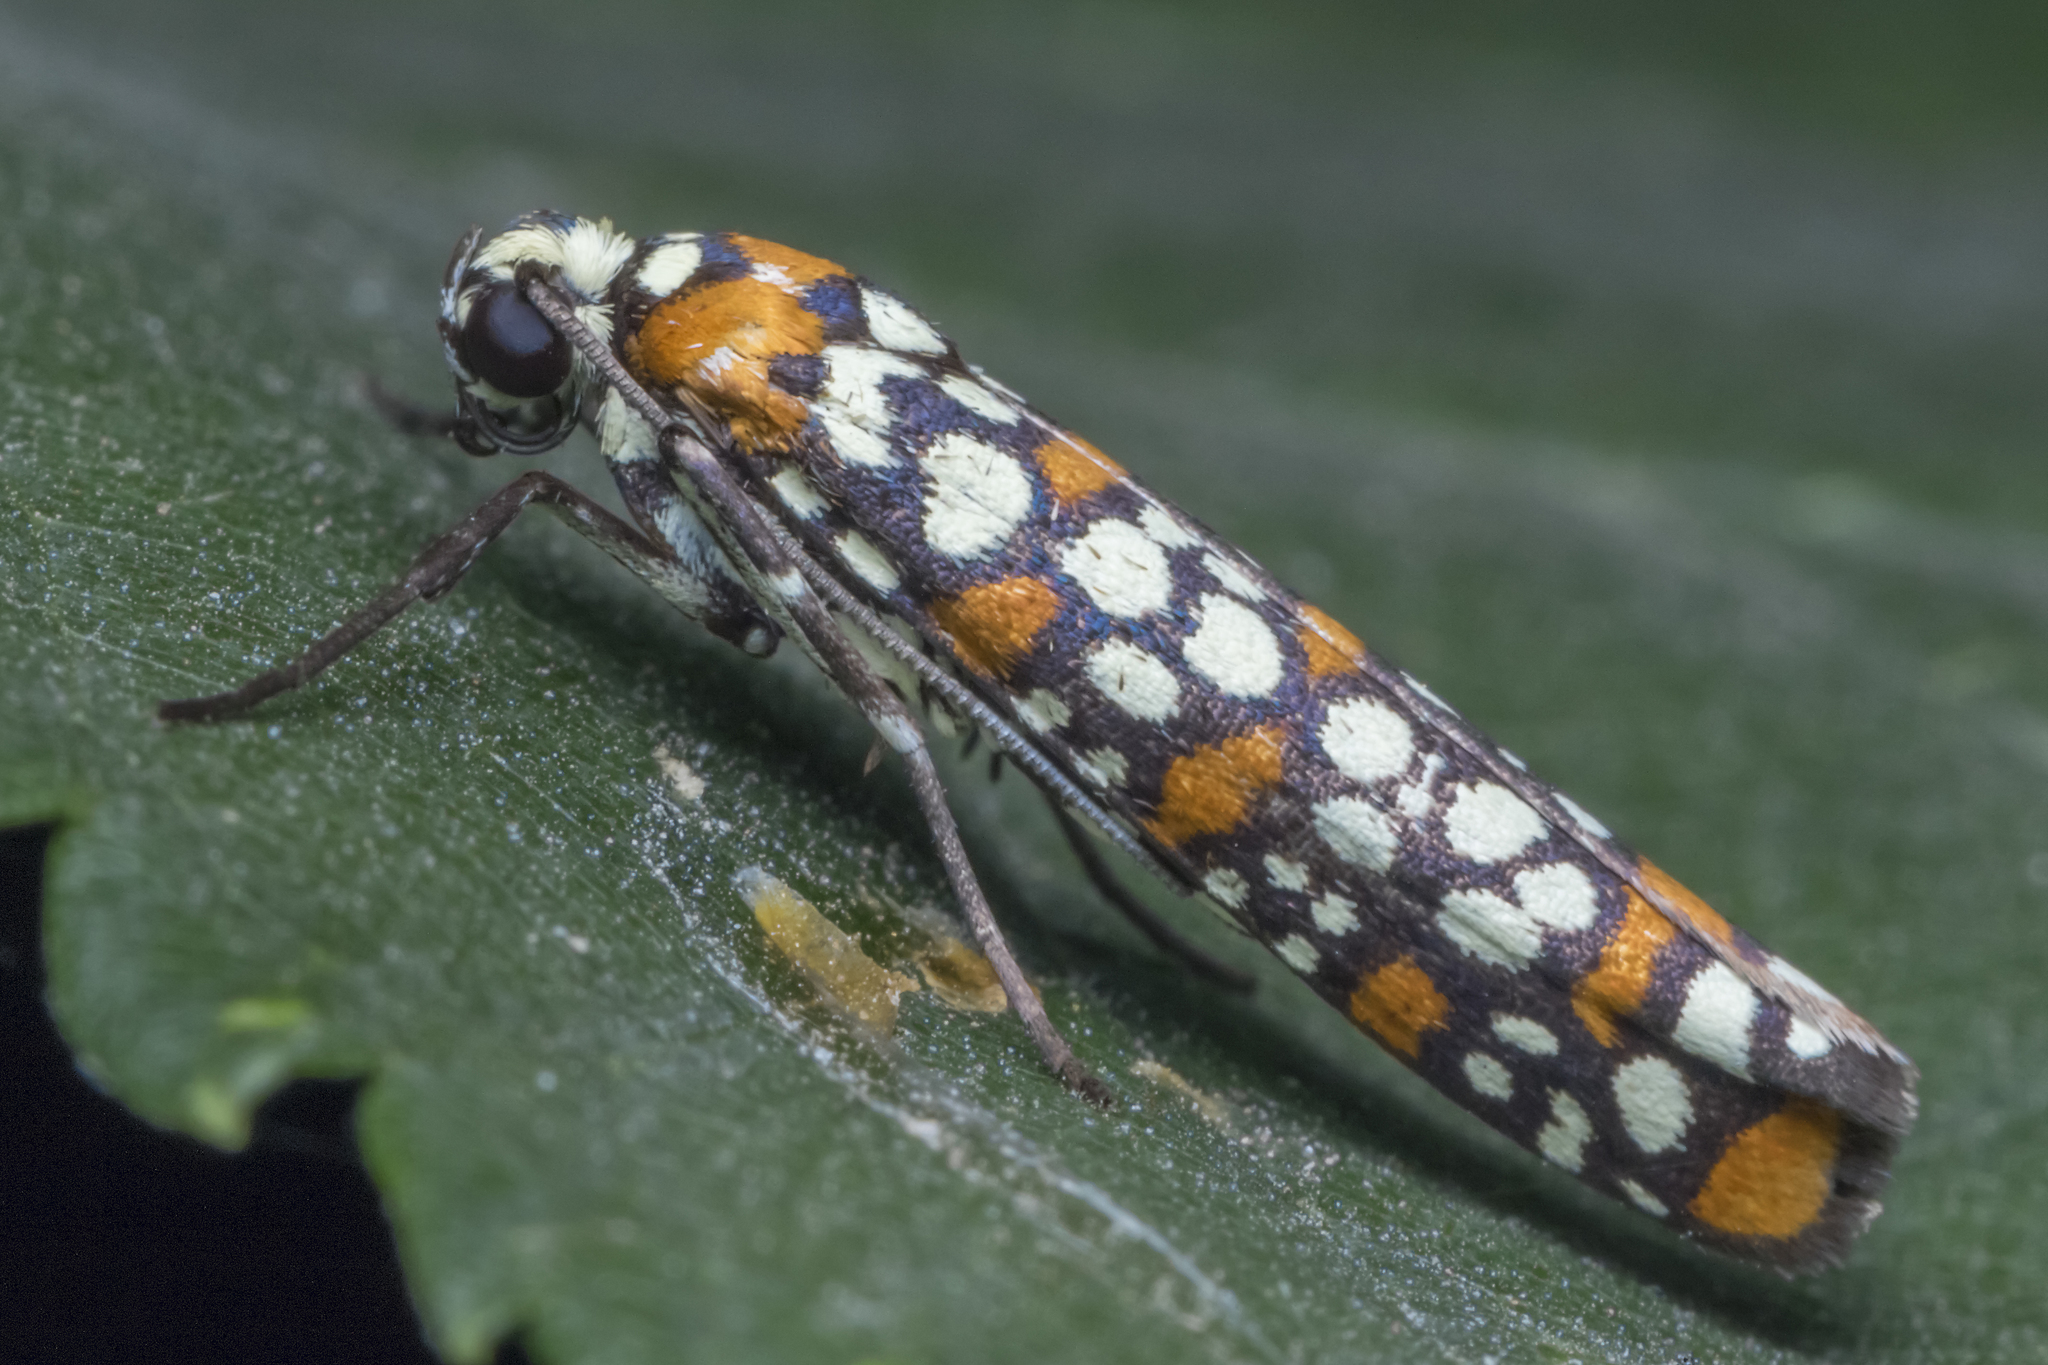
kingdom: Animalia
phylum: Arthropoda
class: Insecta
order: Lepidoptera
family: Attevidae
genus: Atteva
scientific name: Atteva punctella
